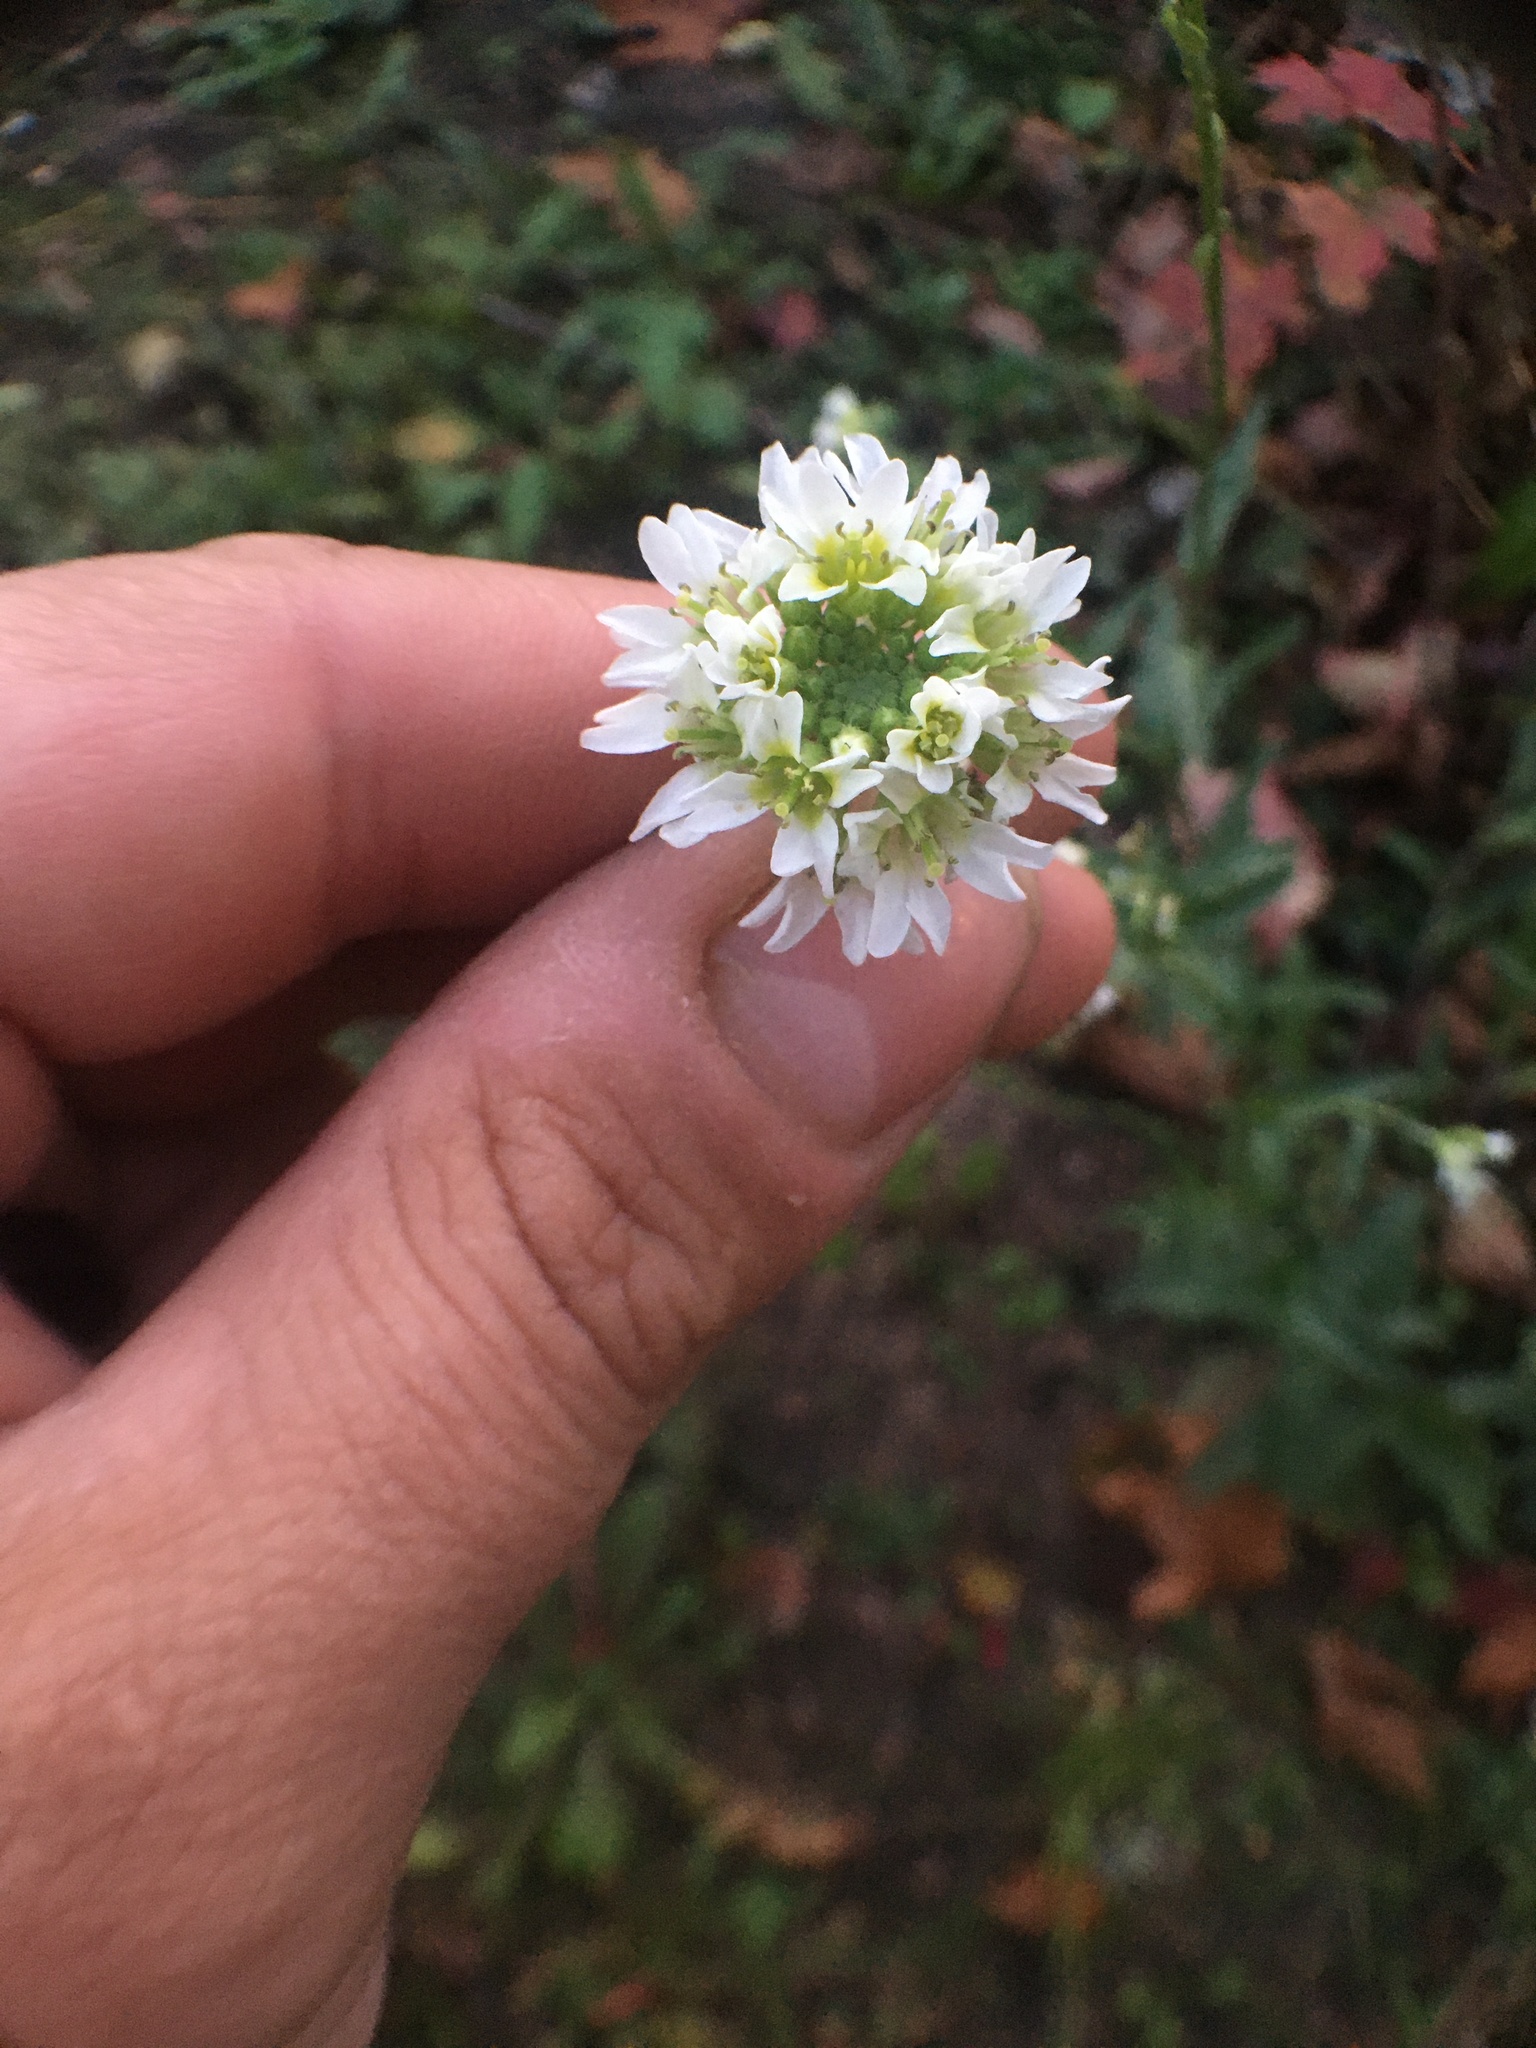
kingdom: Plantae
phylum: Tracheophyta
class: Magnoliopsida
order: Brassicales
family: Brassicaceae
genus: Berteroa
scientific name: Berteroa incana
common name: Hoary alison
